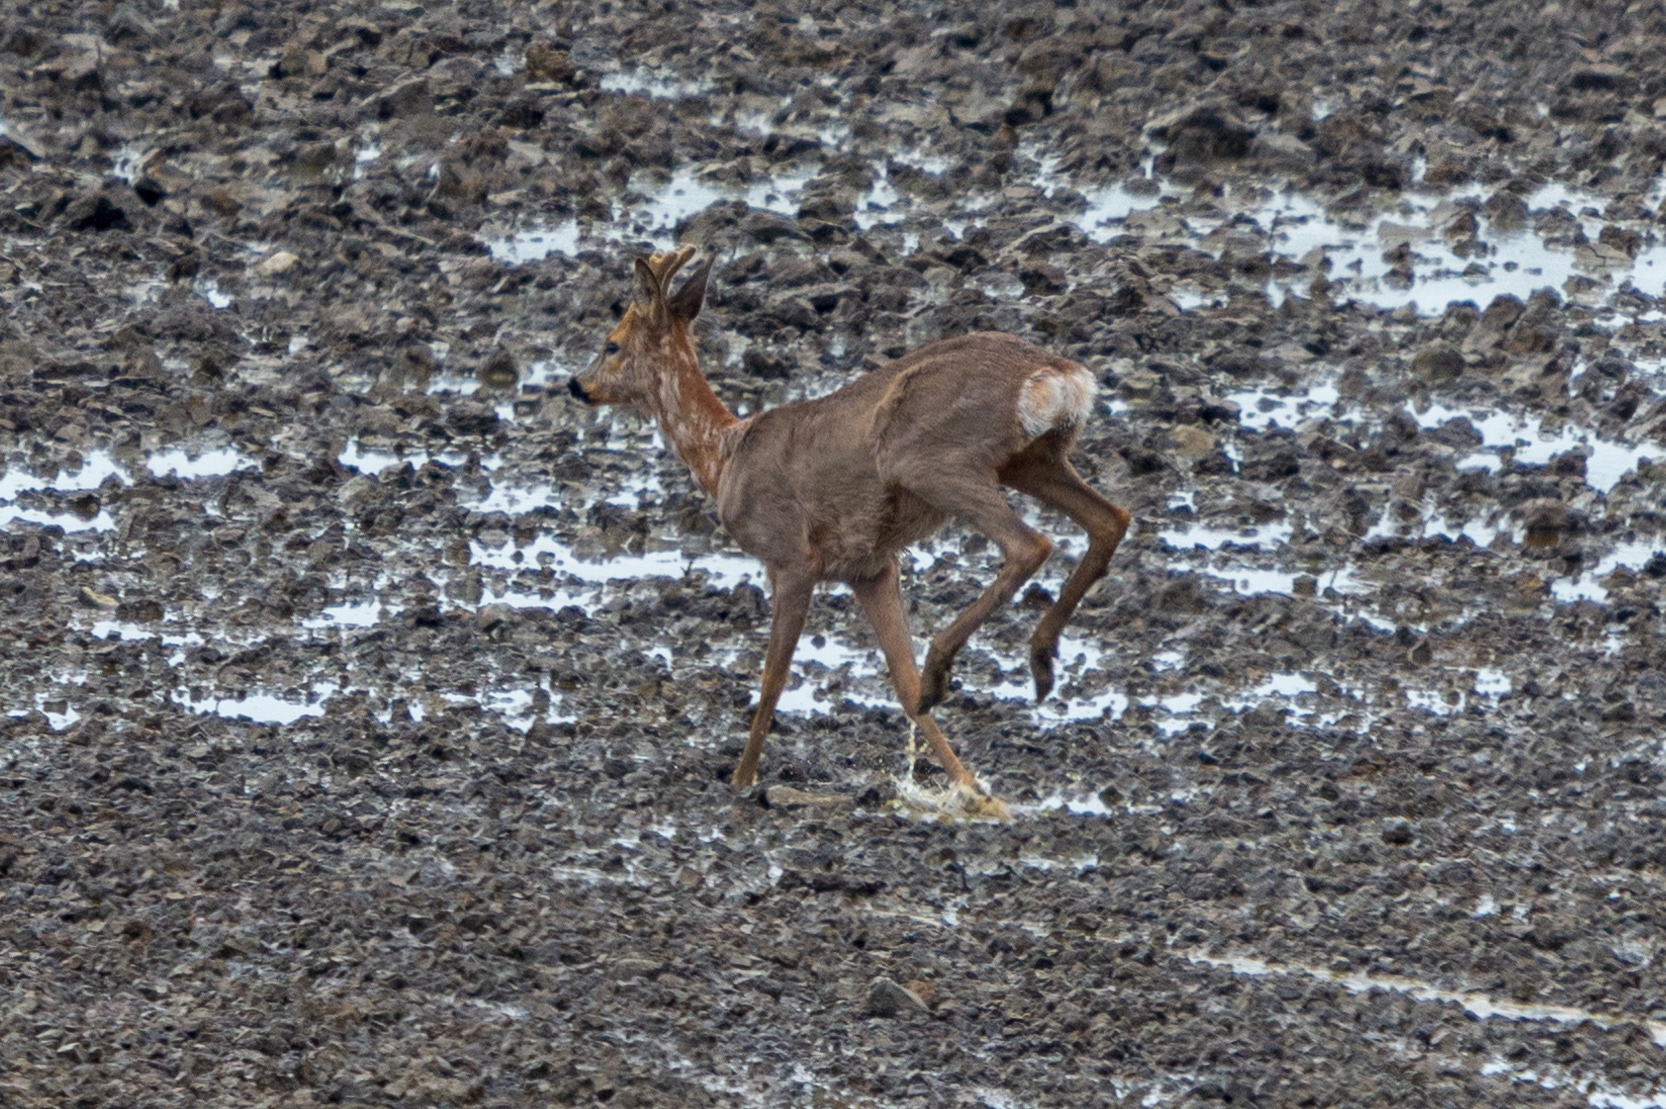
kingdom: Animalia
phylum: Chordata
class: Mammalia
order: Artiodactyla
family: Cervidae
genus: Capreolus
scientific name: Capreolus capreolus
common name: Western roe deer
